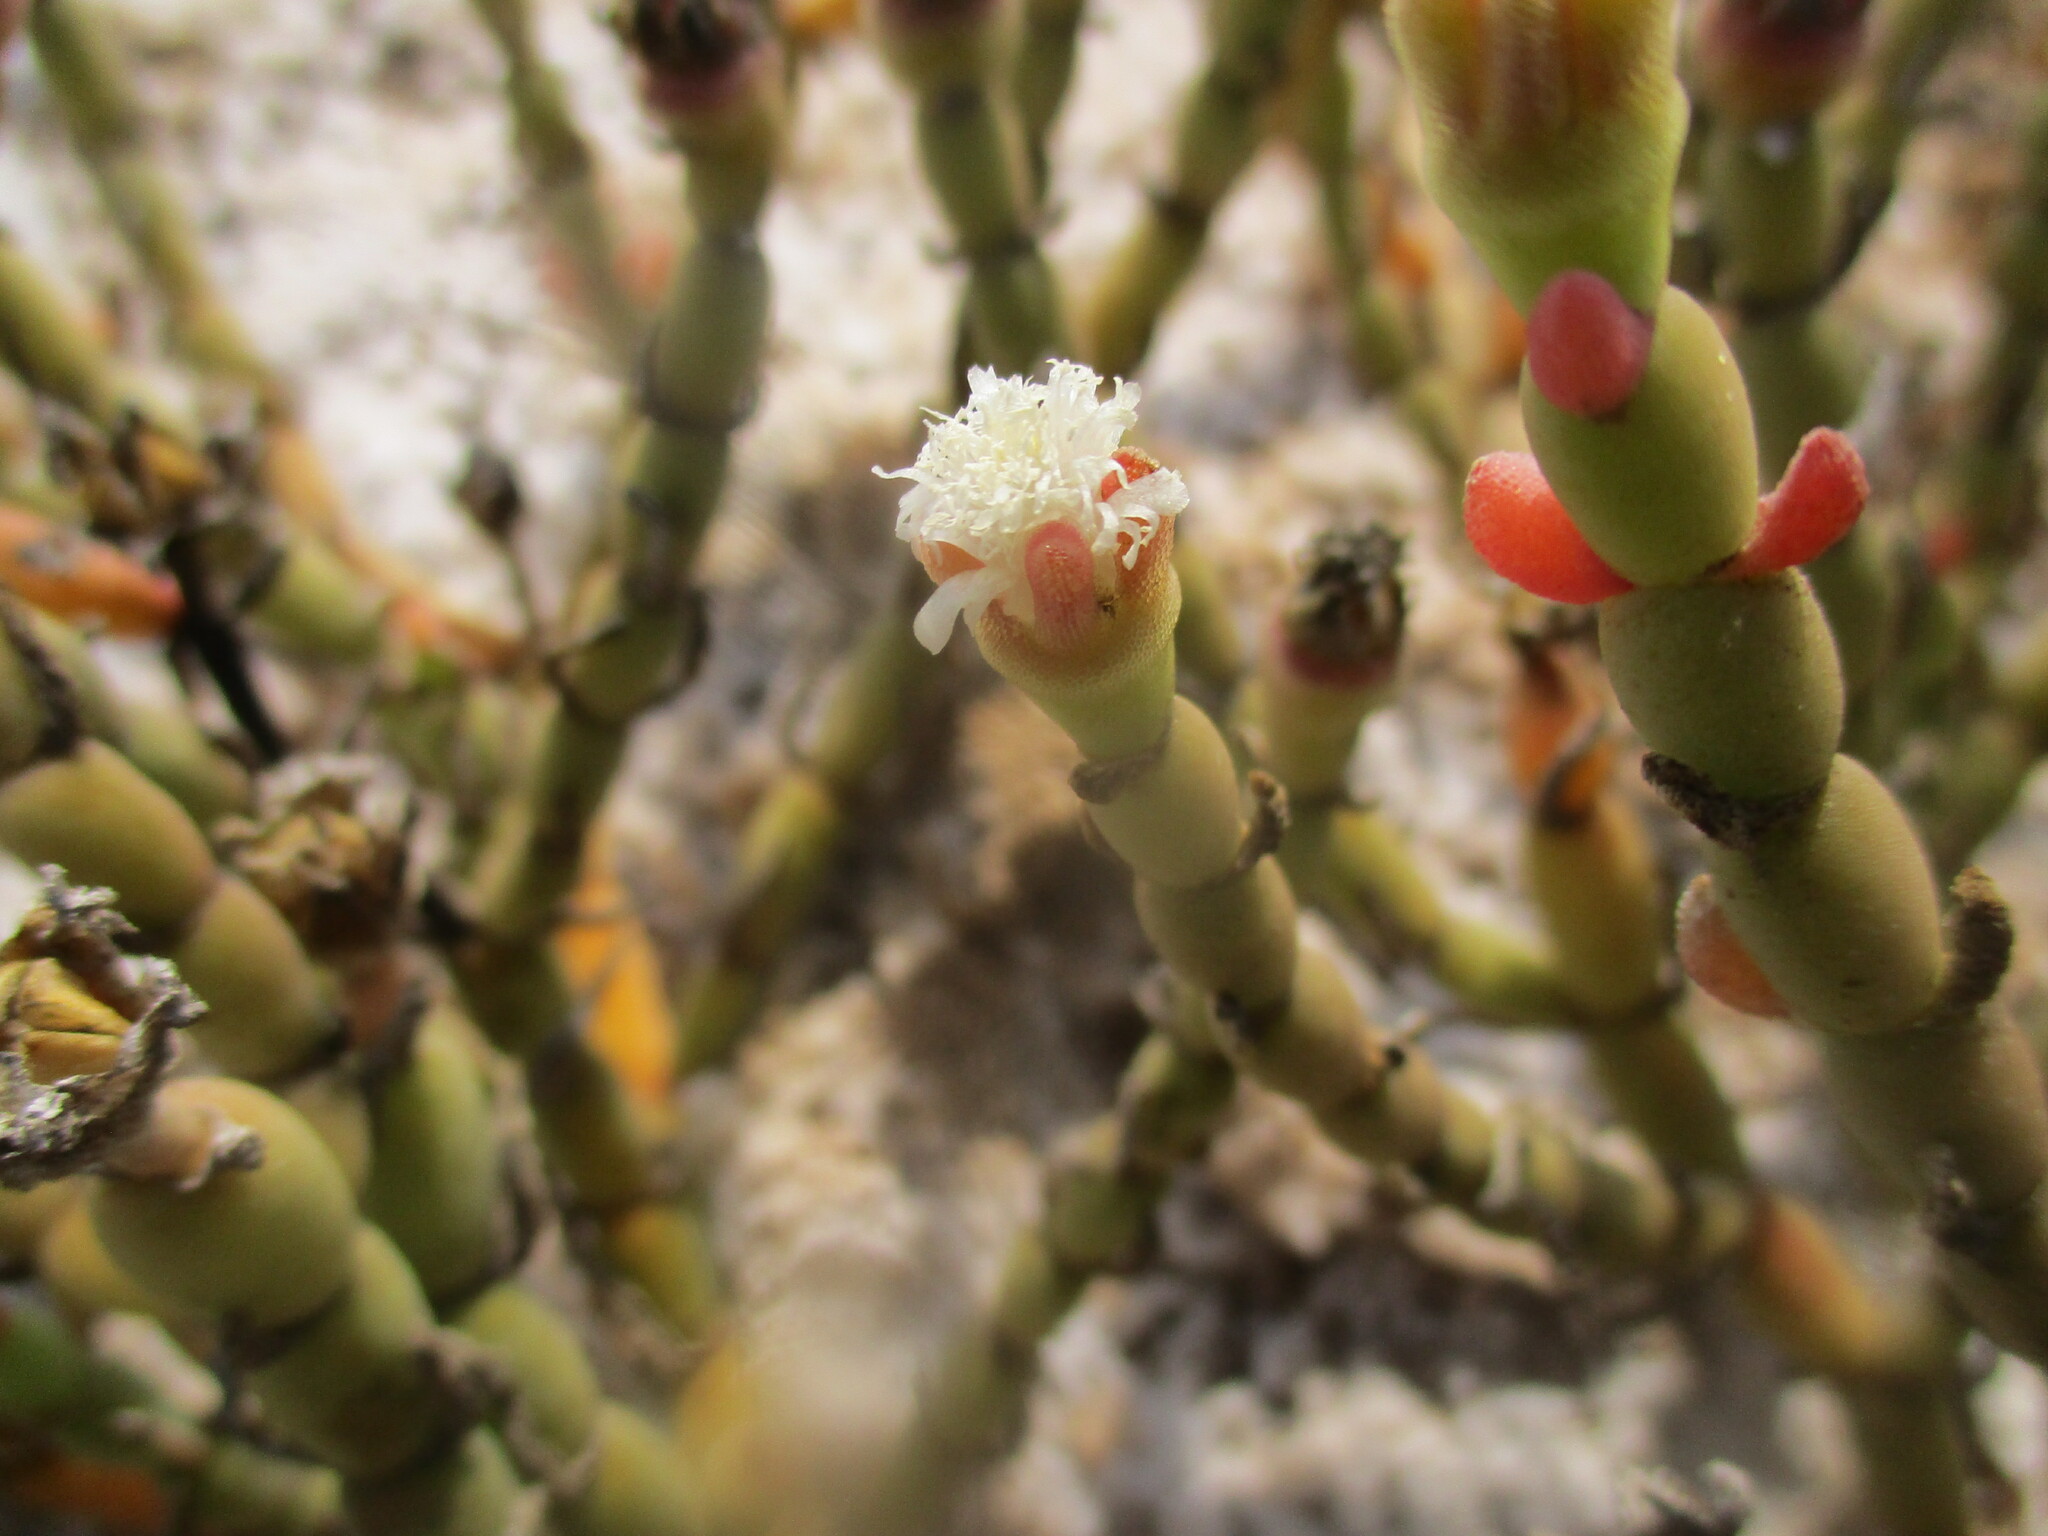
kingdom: Plantae
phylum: Tracheophyta
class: Magnoliopsida
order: Caryophyllales
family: Aizoaceae
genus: Mesembryanthemum
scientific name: Mesembryanthemum kuntzei
